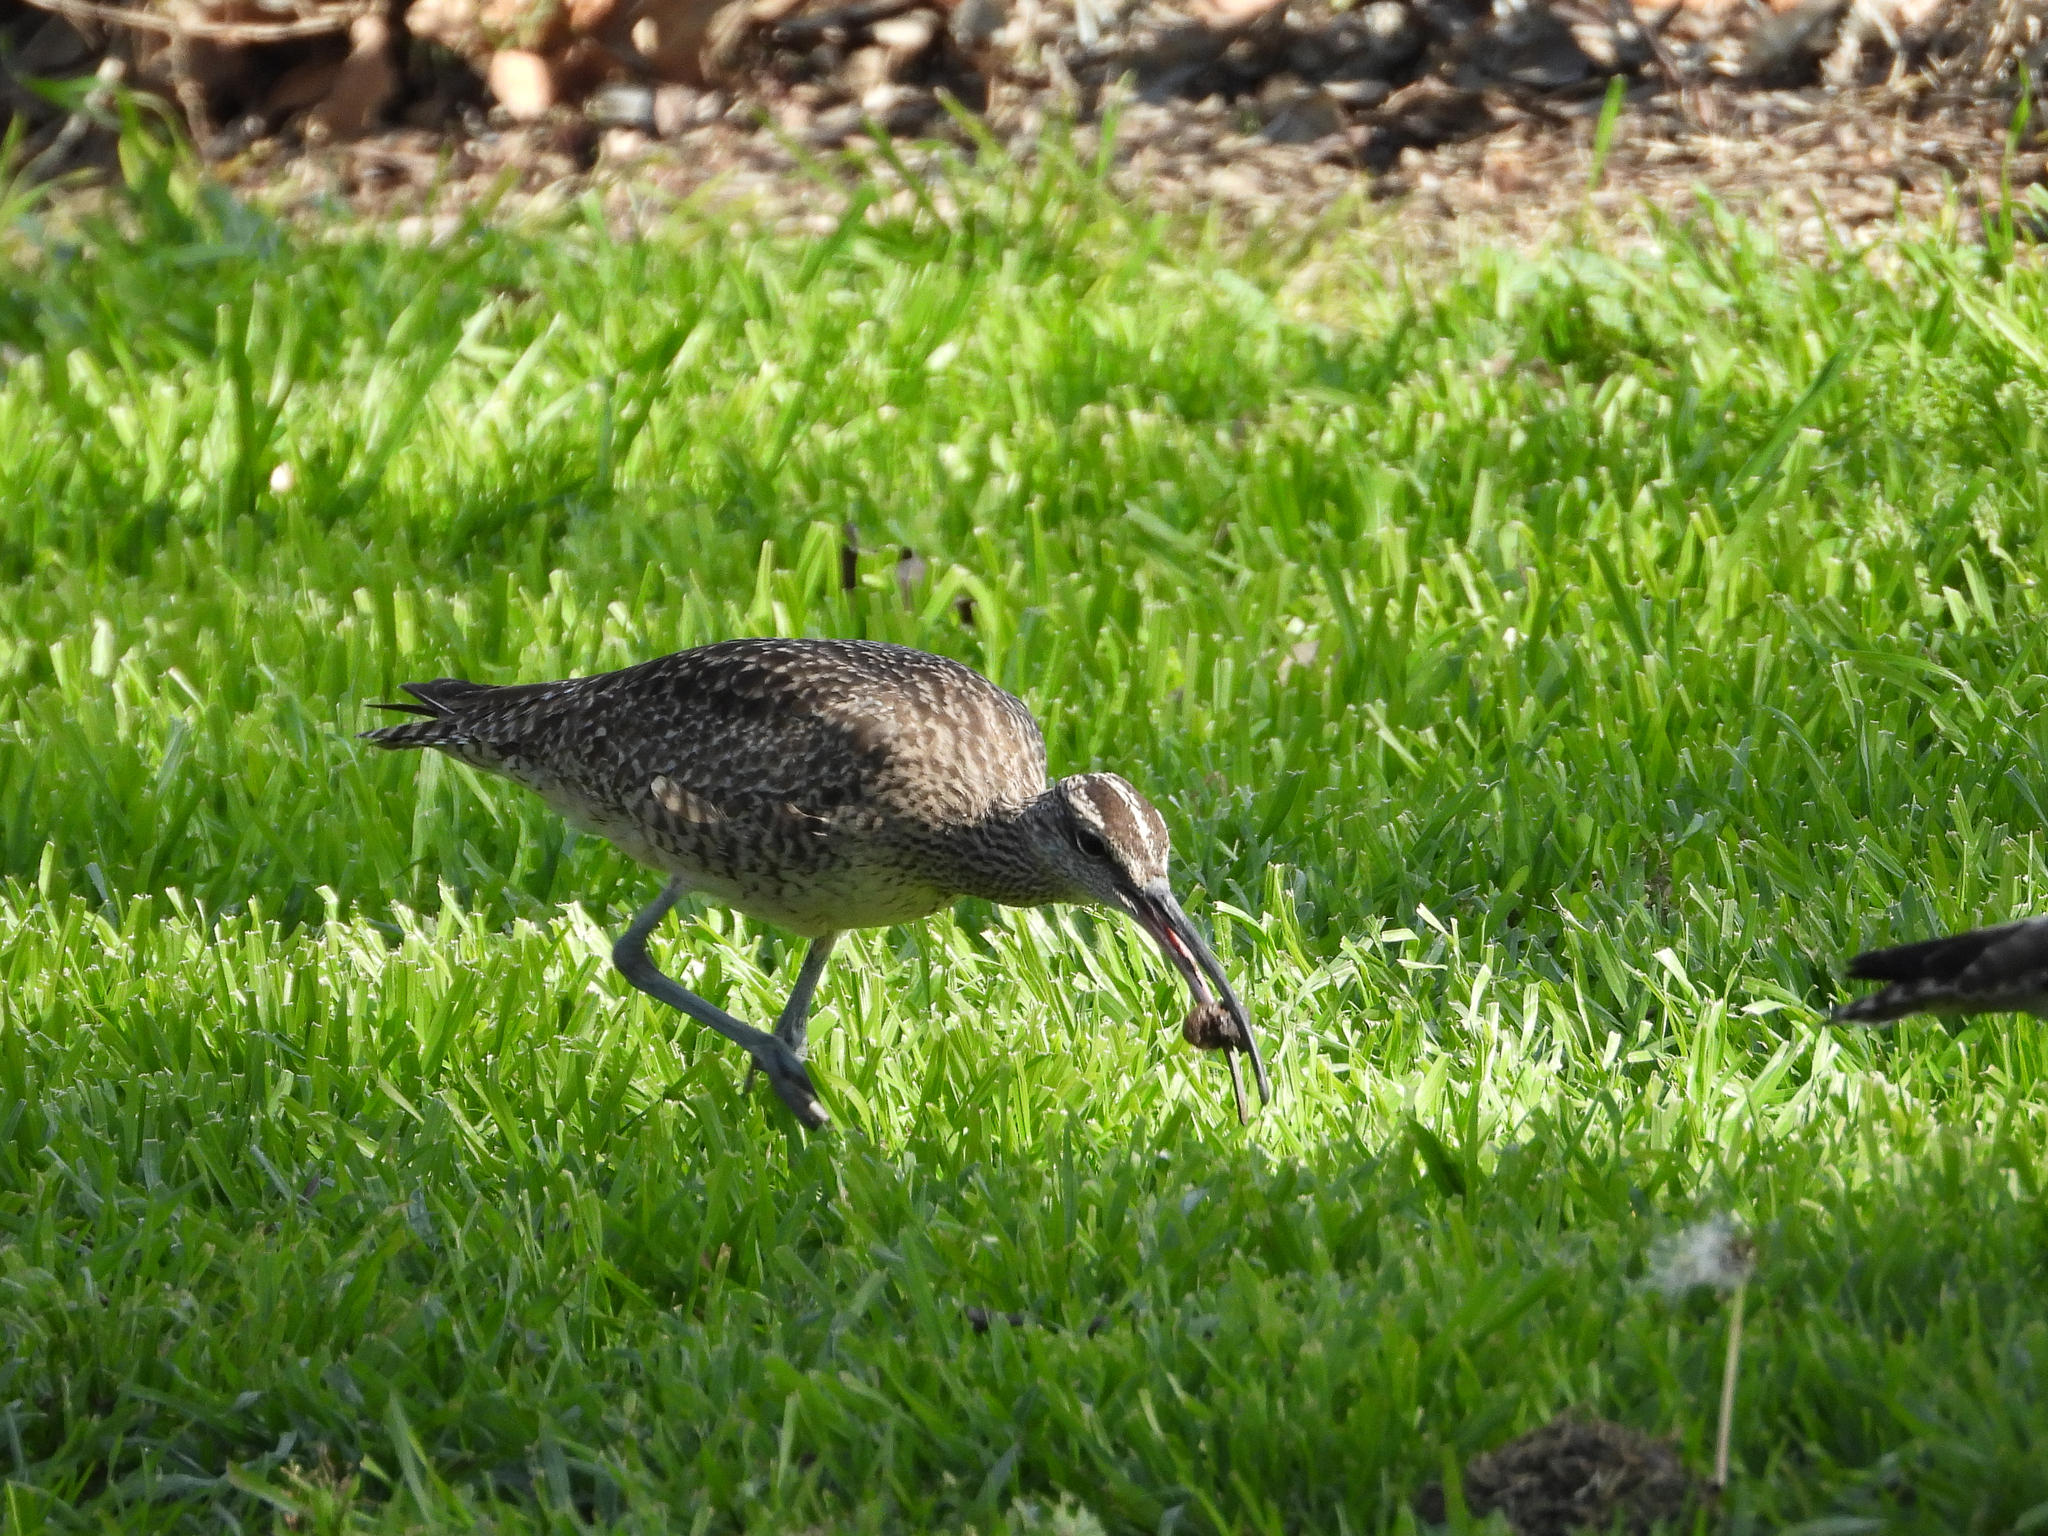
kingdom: Animalia
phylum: Chordata
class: Aves
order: Charadriiformes
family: Scolopacidae
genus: Numenius
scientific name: Numenius phaeopus
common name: Whimbrel
